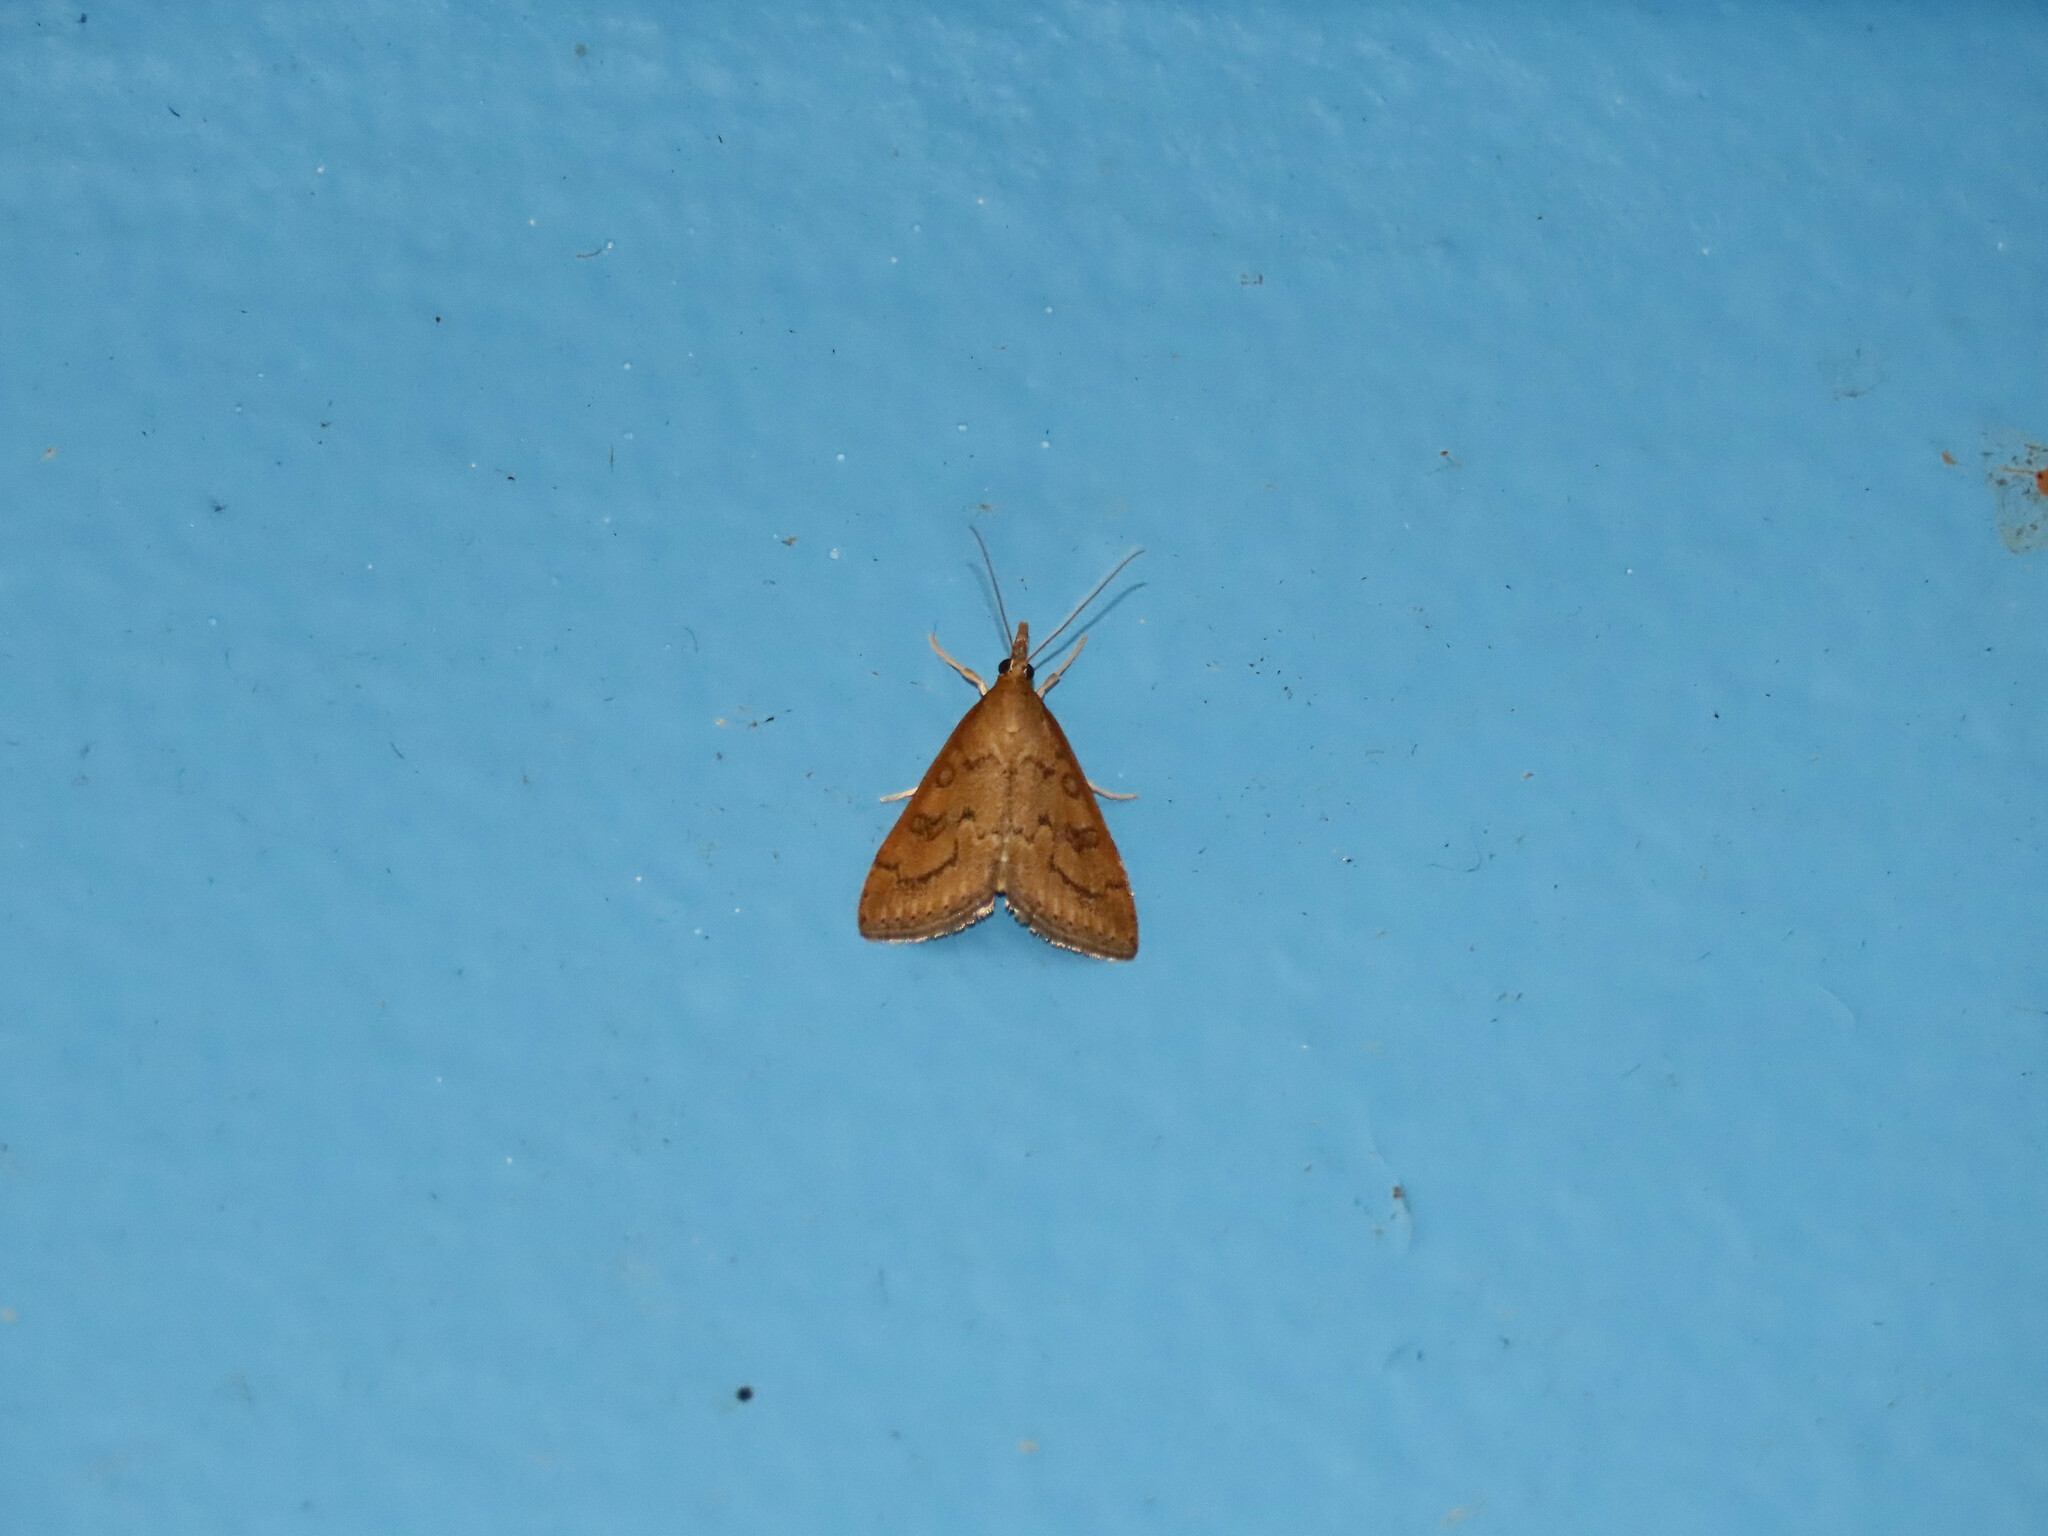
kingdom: Animalia
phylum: Arthropoda
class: Insecta
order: Lepidoptera
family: Crambidae
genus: Udea
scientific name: Udea rubigalis
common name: Celery leaftier moth
